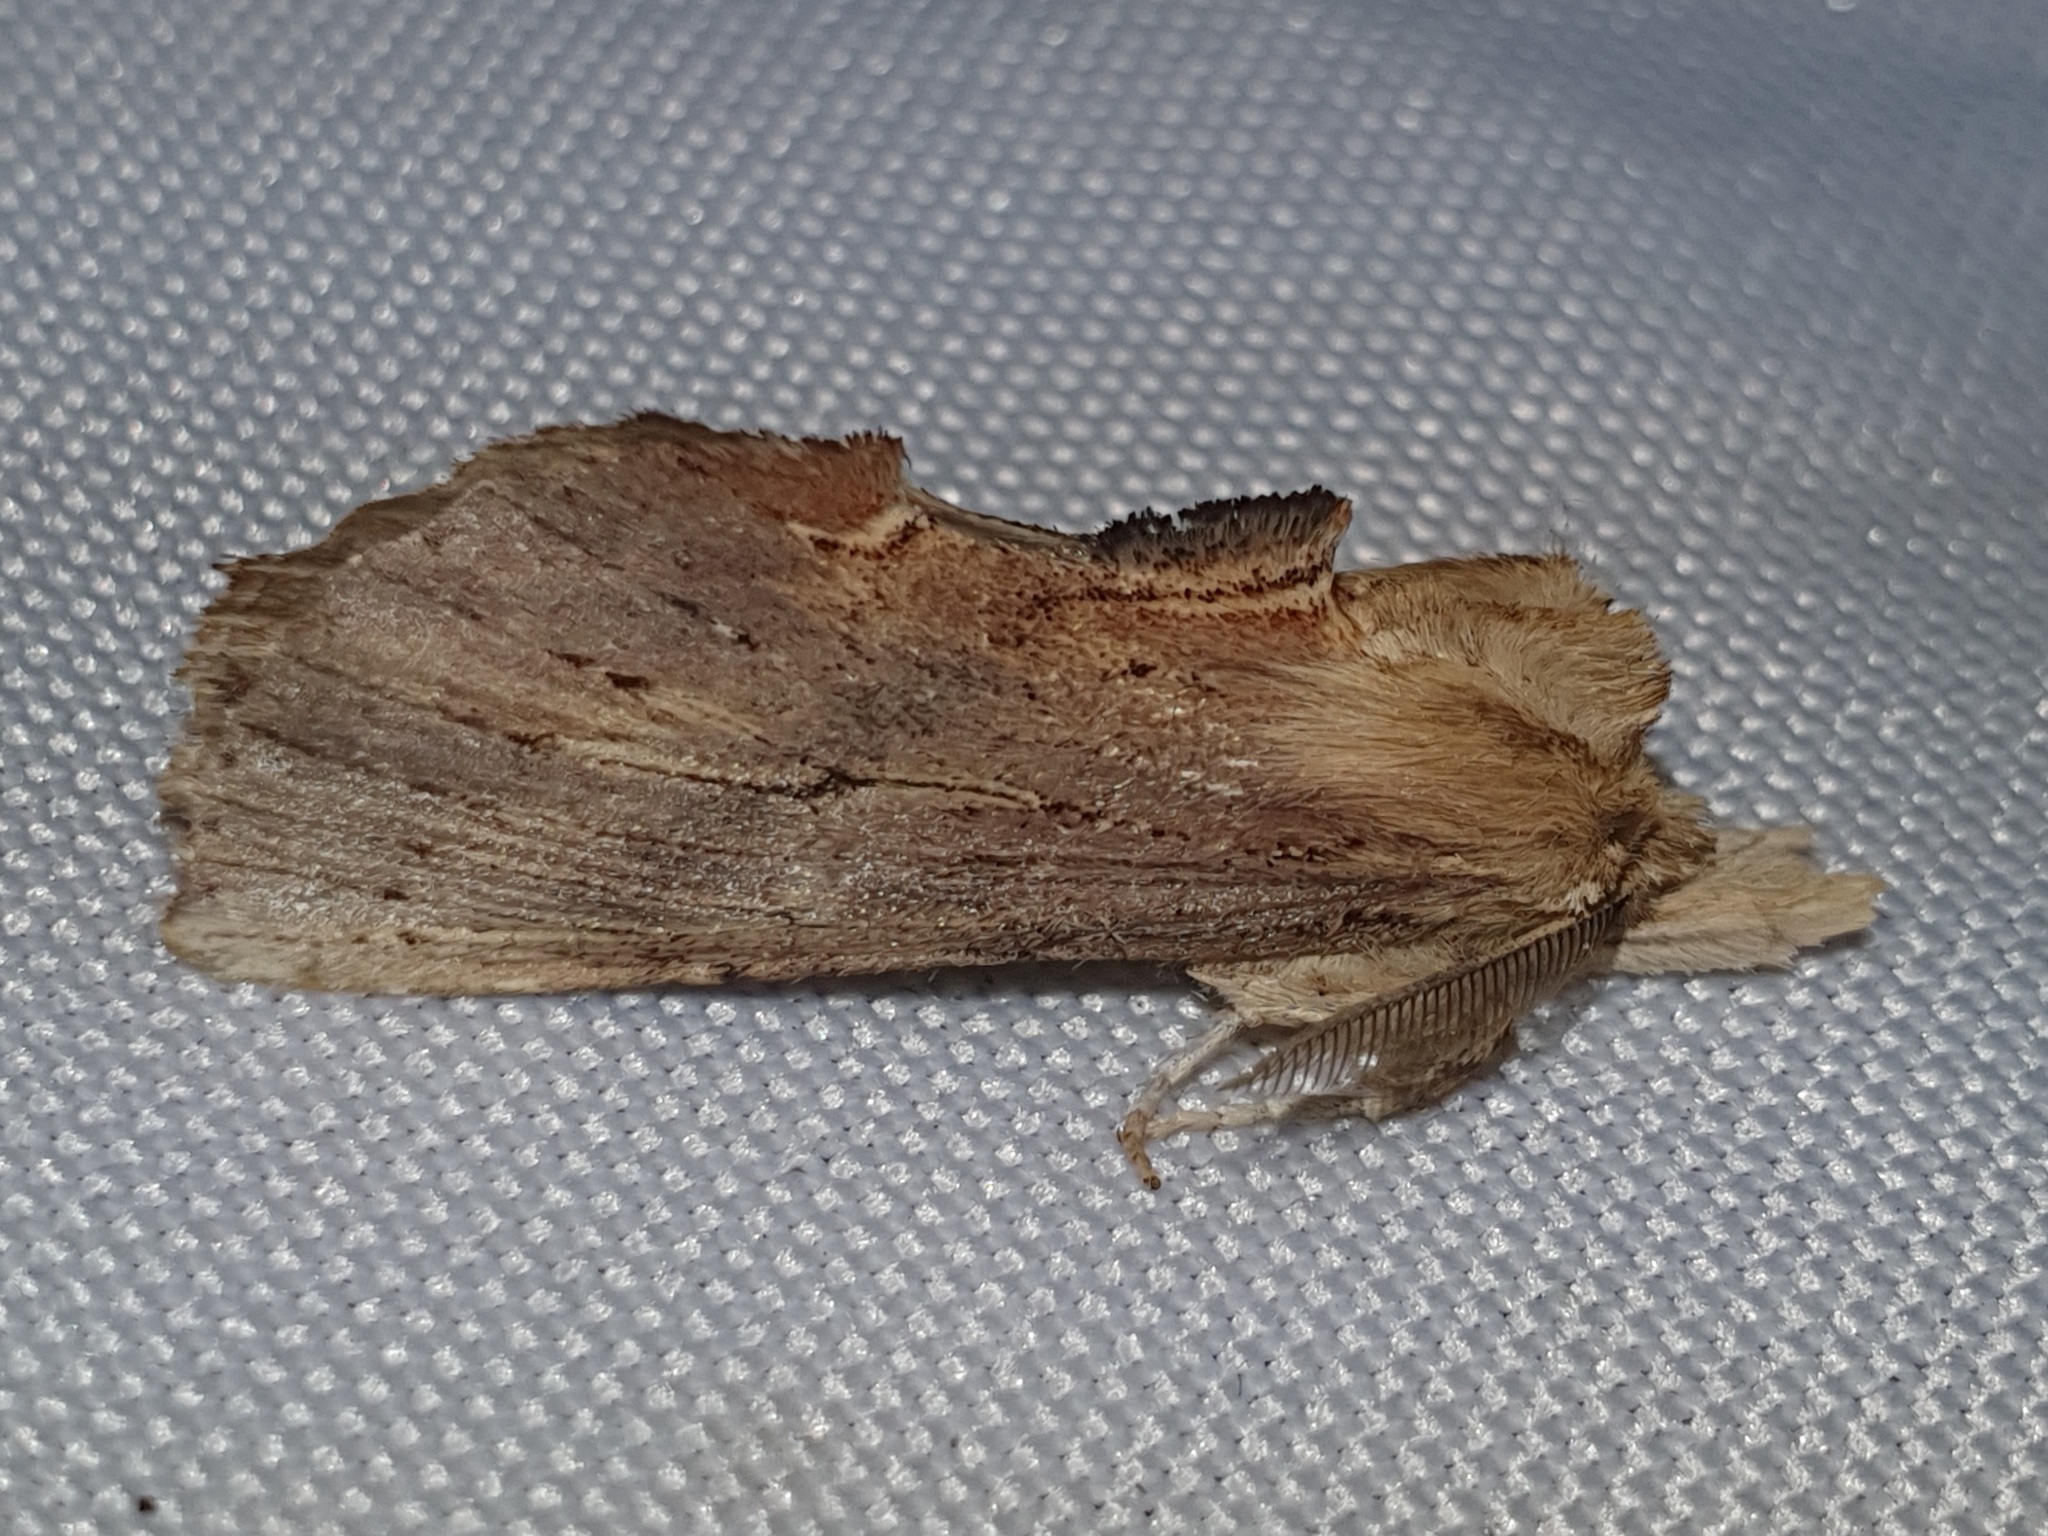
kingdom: Animalia
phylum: Arthropoda
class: Insecta
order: Lepidoptera
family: Notodontidae
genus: Pterostoma
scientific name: Pterostoma palpina
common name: Pale prominent
